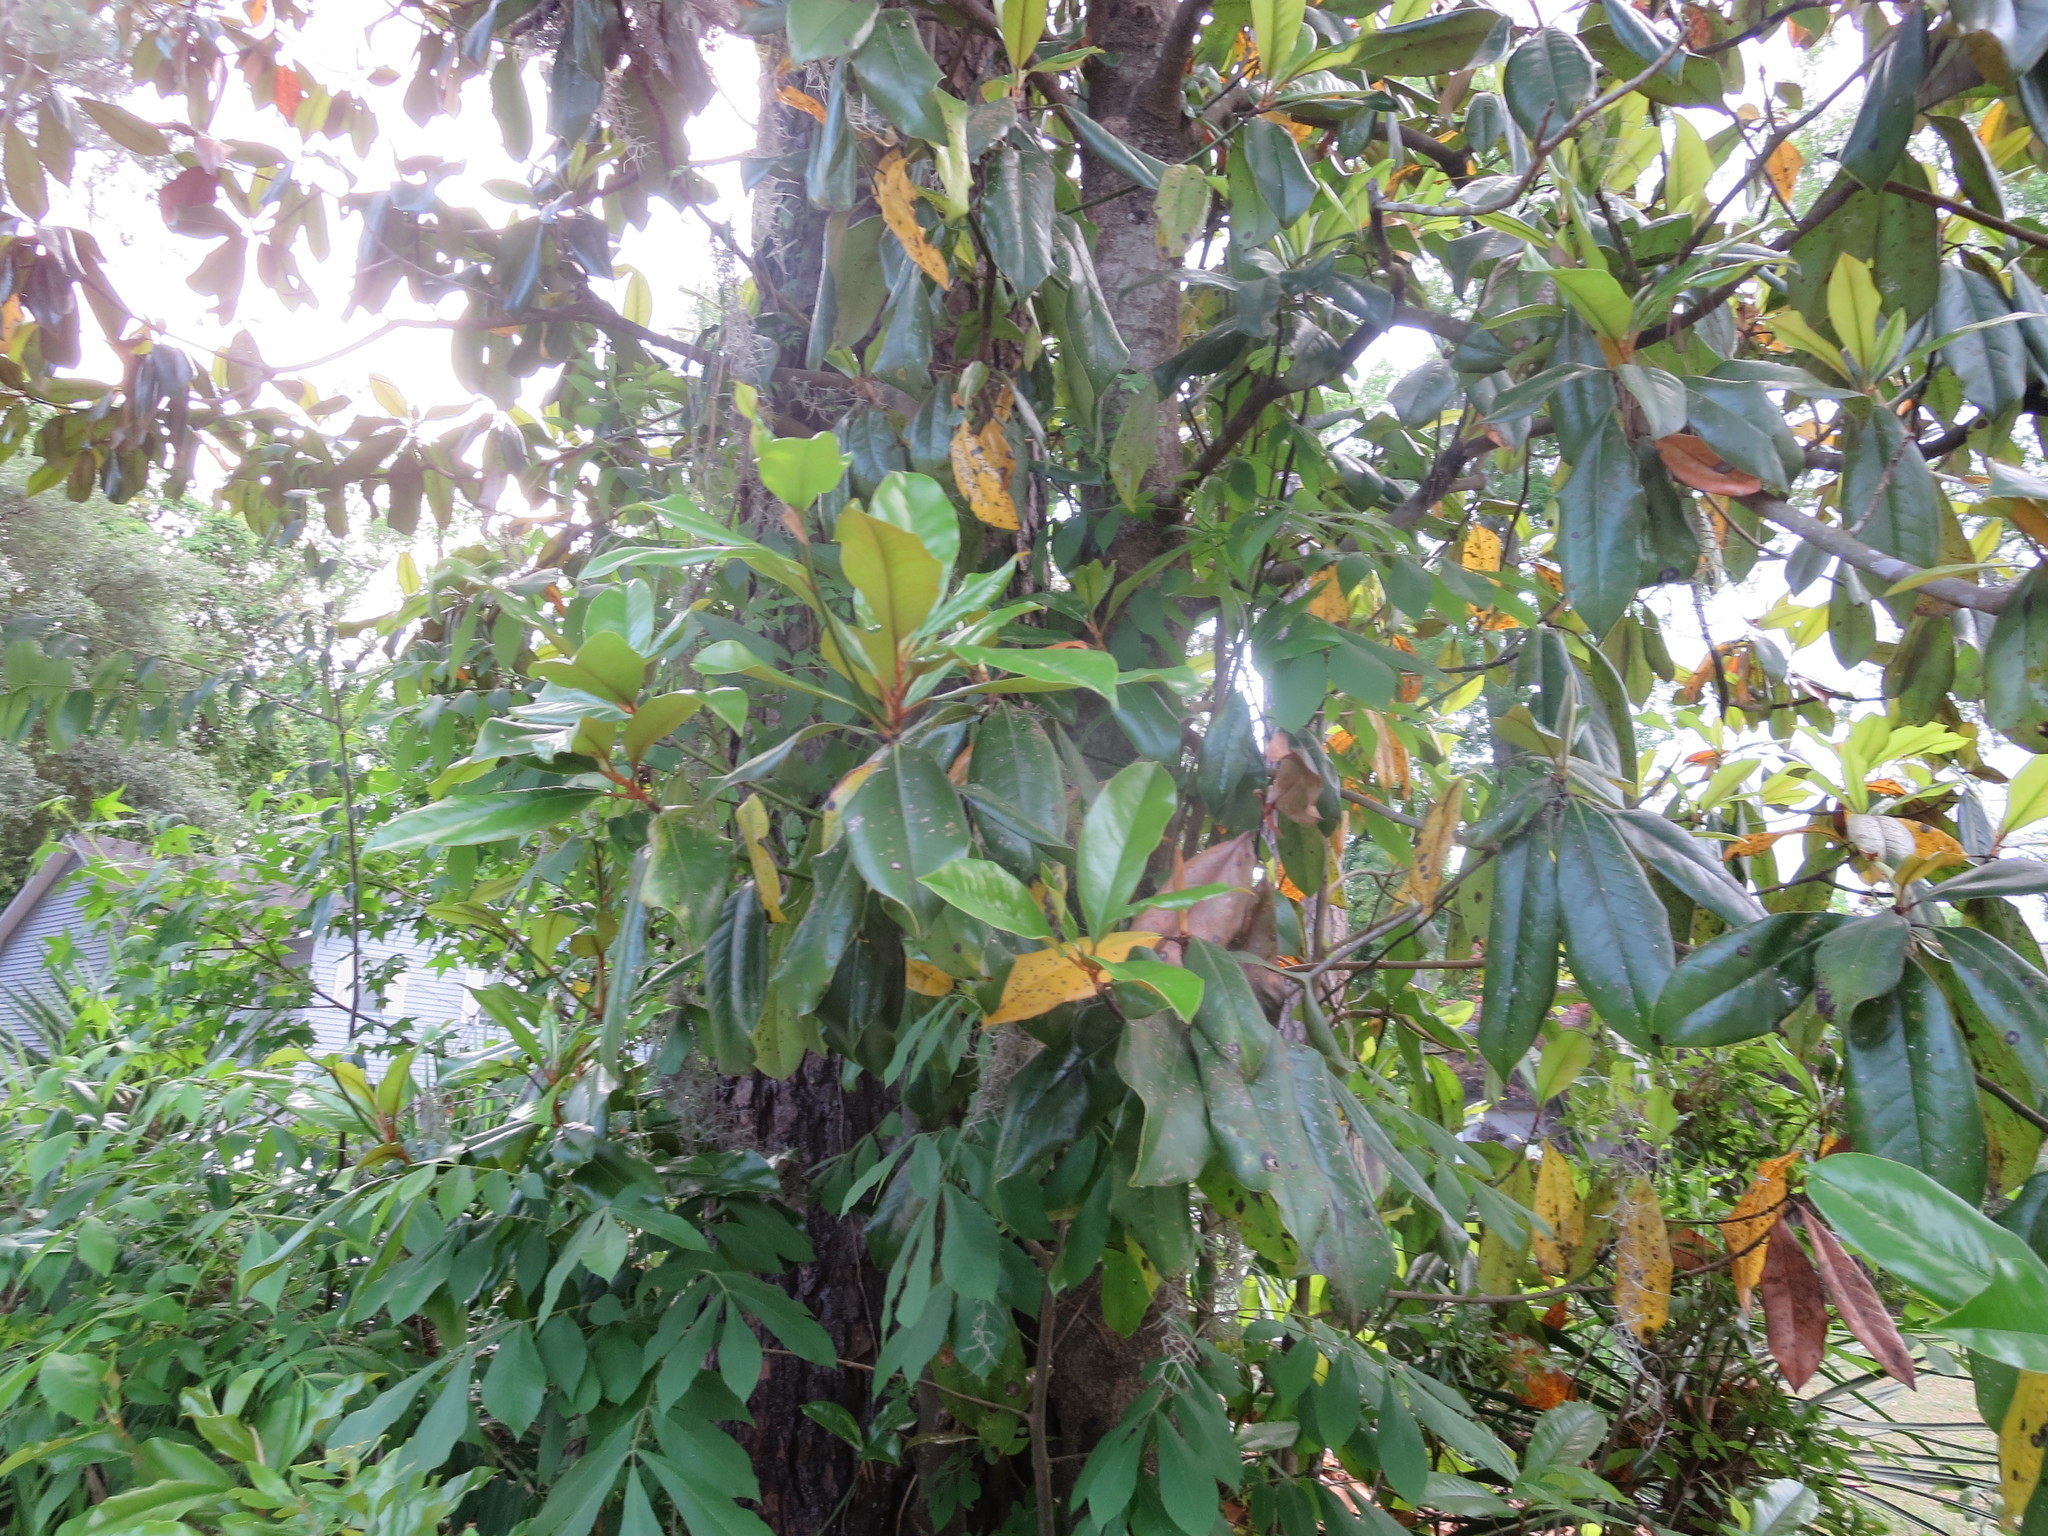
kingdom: Plantae
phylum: Tracheophyta
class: Magnoliopsida
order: Magnoliales
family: Magnoliaceae
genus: Magnolia
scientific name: Magnolia grandiflora
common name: Southern magnolia
